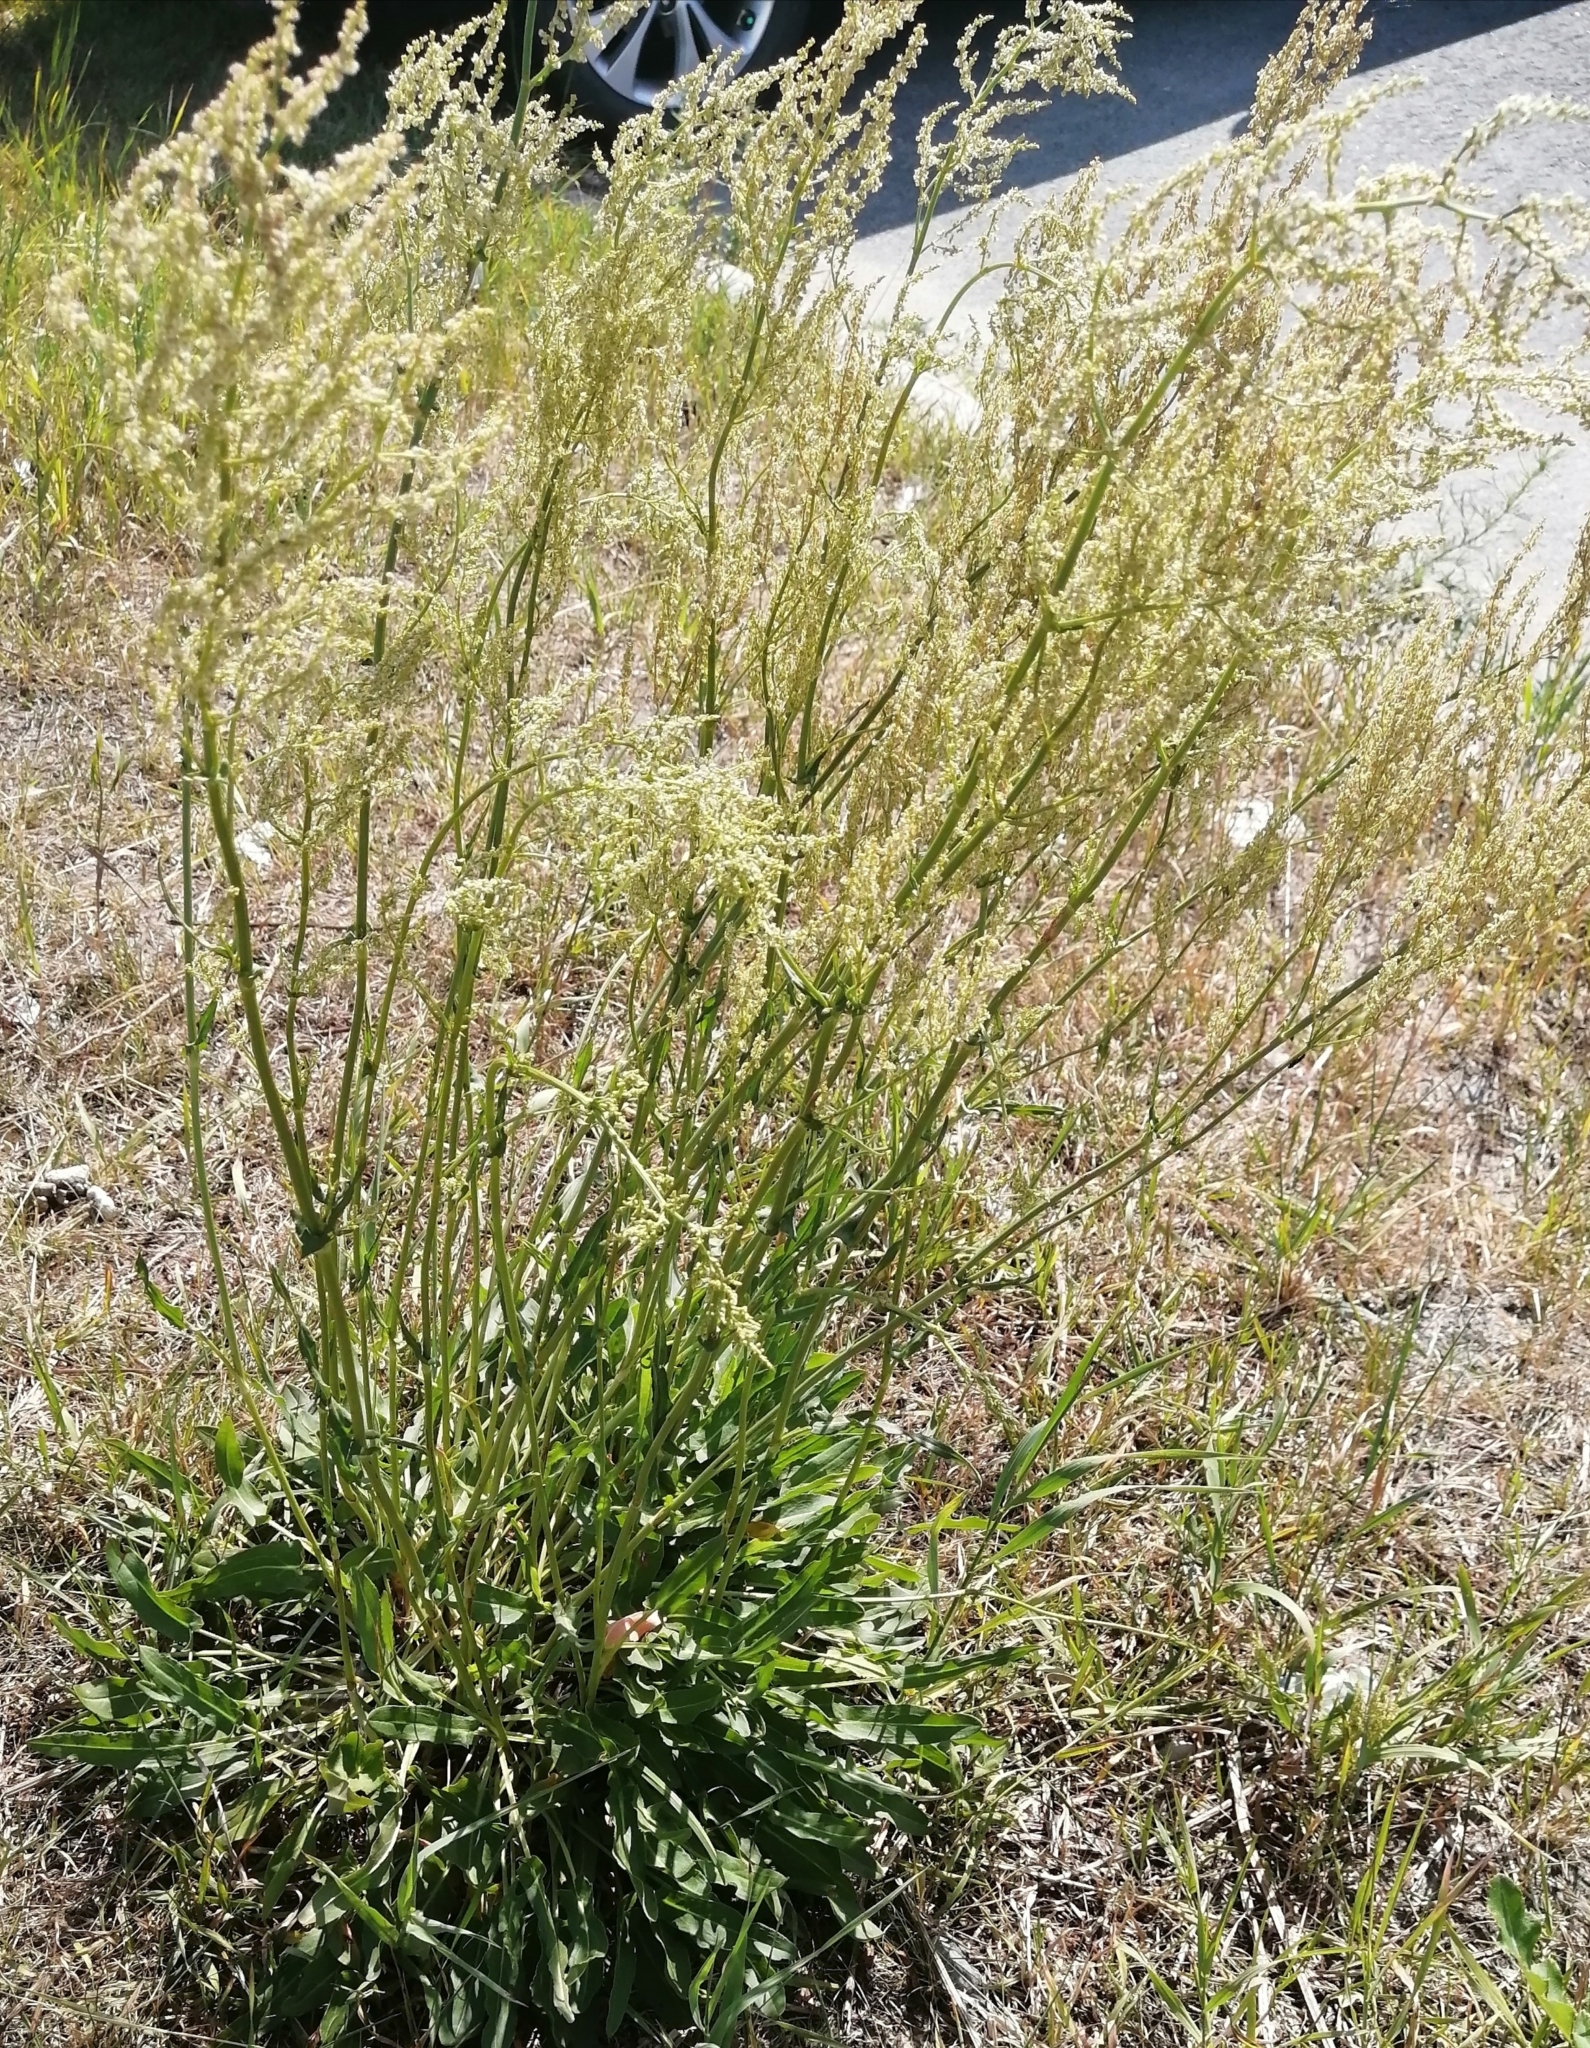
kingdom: Plantae
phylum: Tracheophyta
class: Magnoliopsida
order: Caryophyllales
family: Polygonaceae
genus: Rumex
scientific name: Rumex acetosa
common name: Garden sorrel
